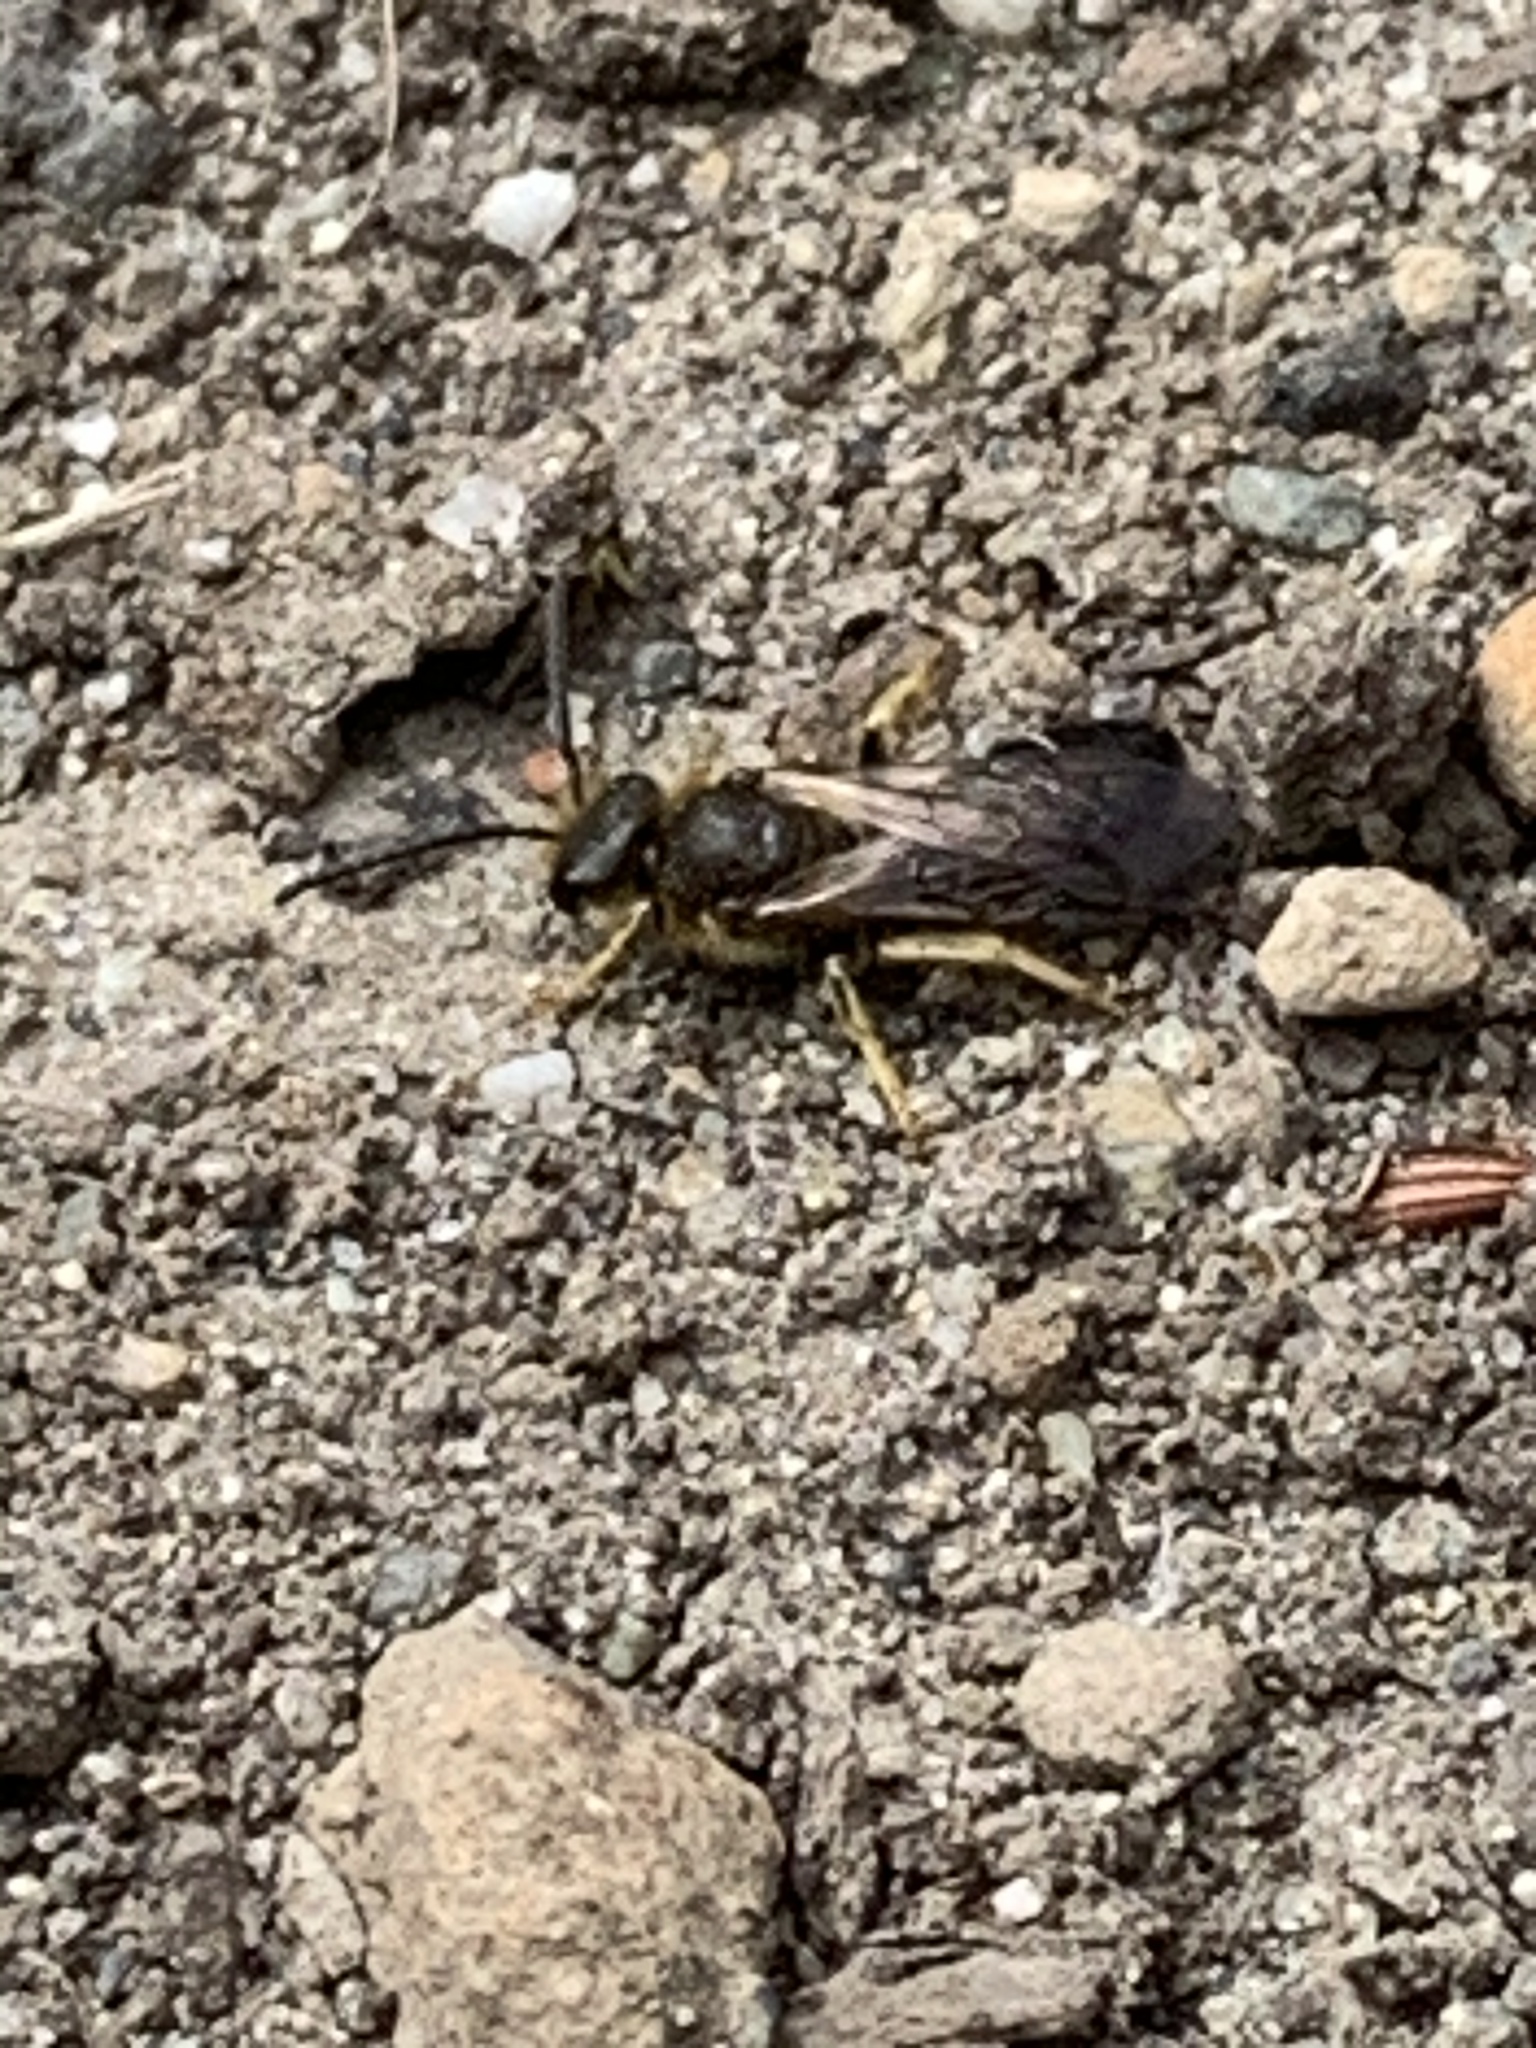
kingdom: Animalia
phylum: Arthropoda
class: Insecta
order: Hymenoptera
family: Halictidae
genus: Halictus
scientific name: Halictus rubicundus
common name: Orange-legged furrow bee
